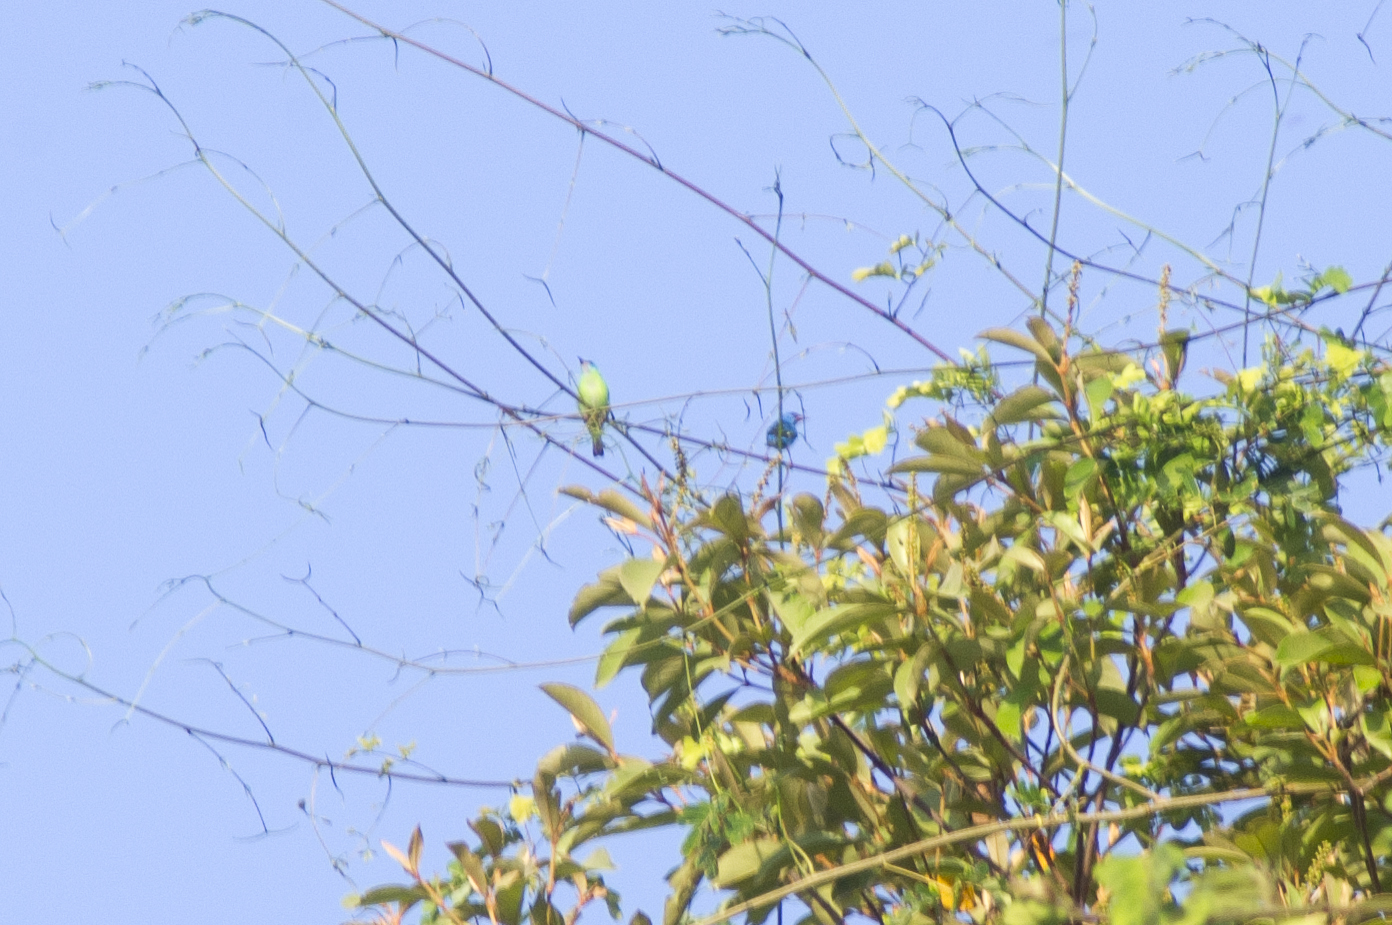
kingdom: Animalia
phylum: Chordata
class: Aves
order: Passeriformes
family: Thraupidae
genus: Dacnis
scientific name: Dacnis cayana
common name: Blue dacnis
